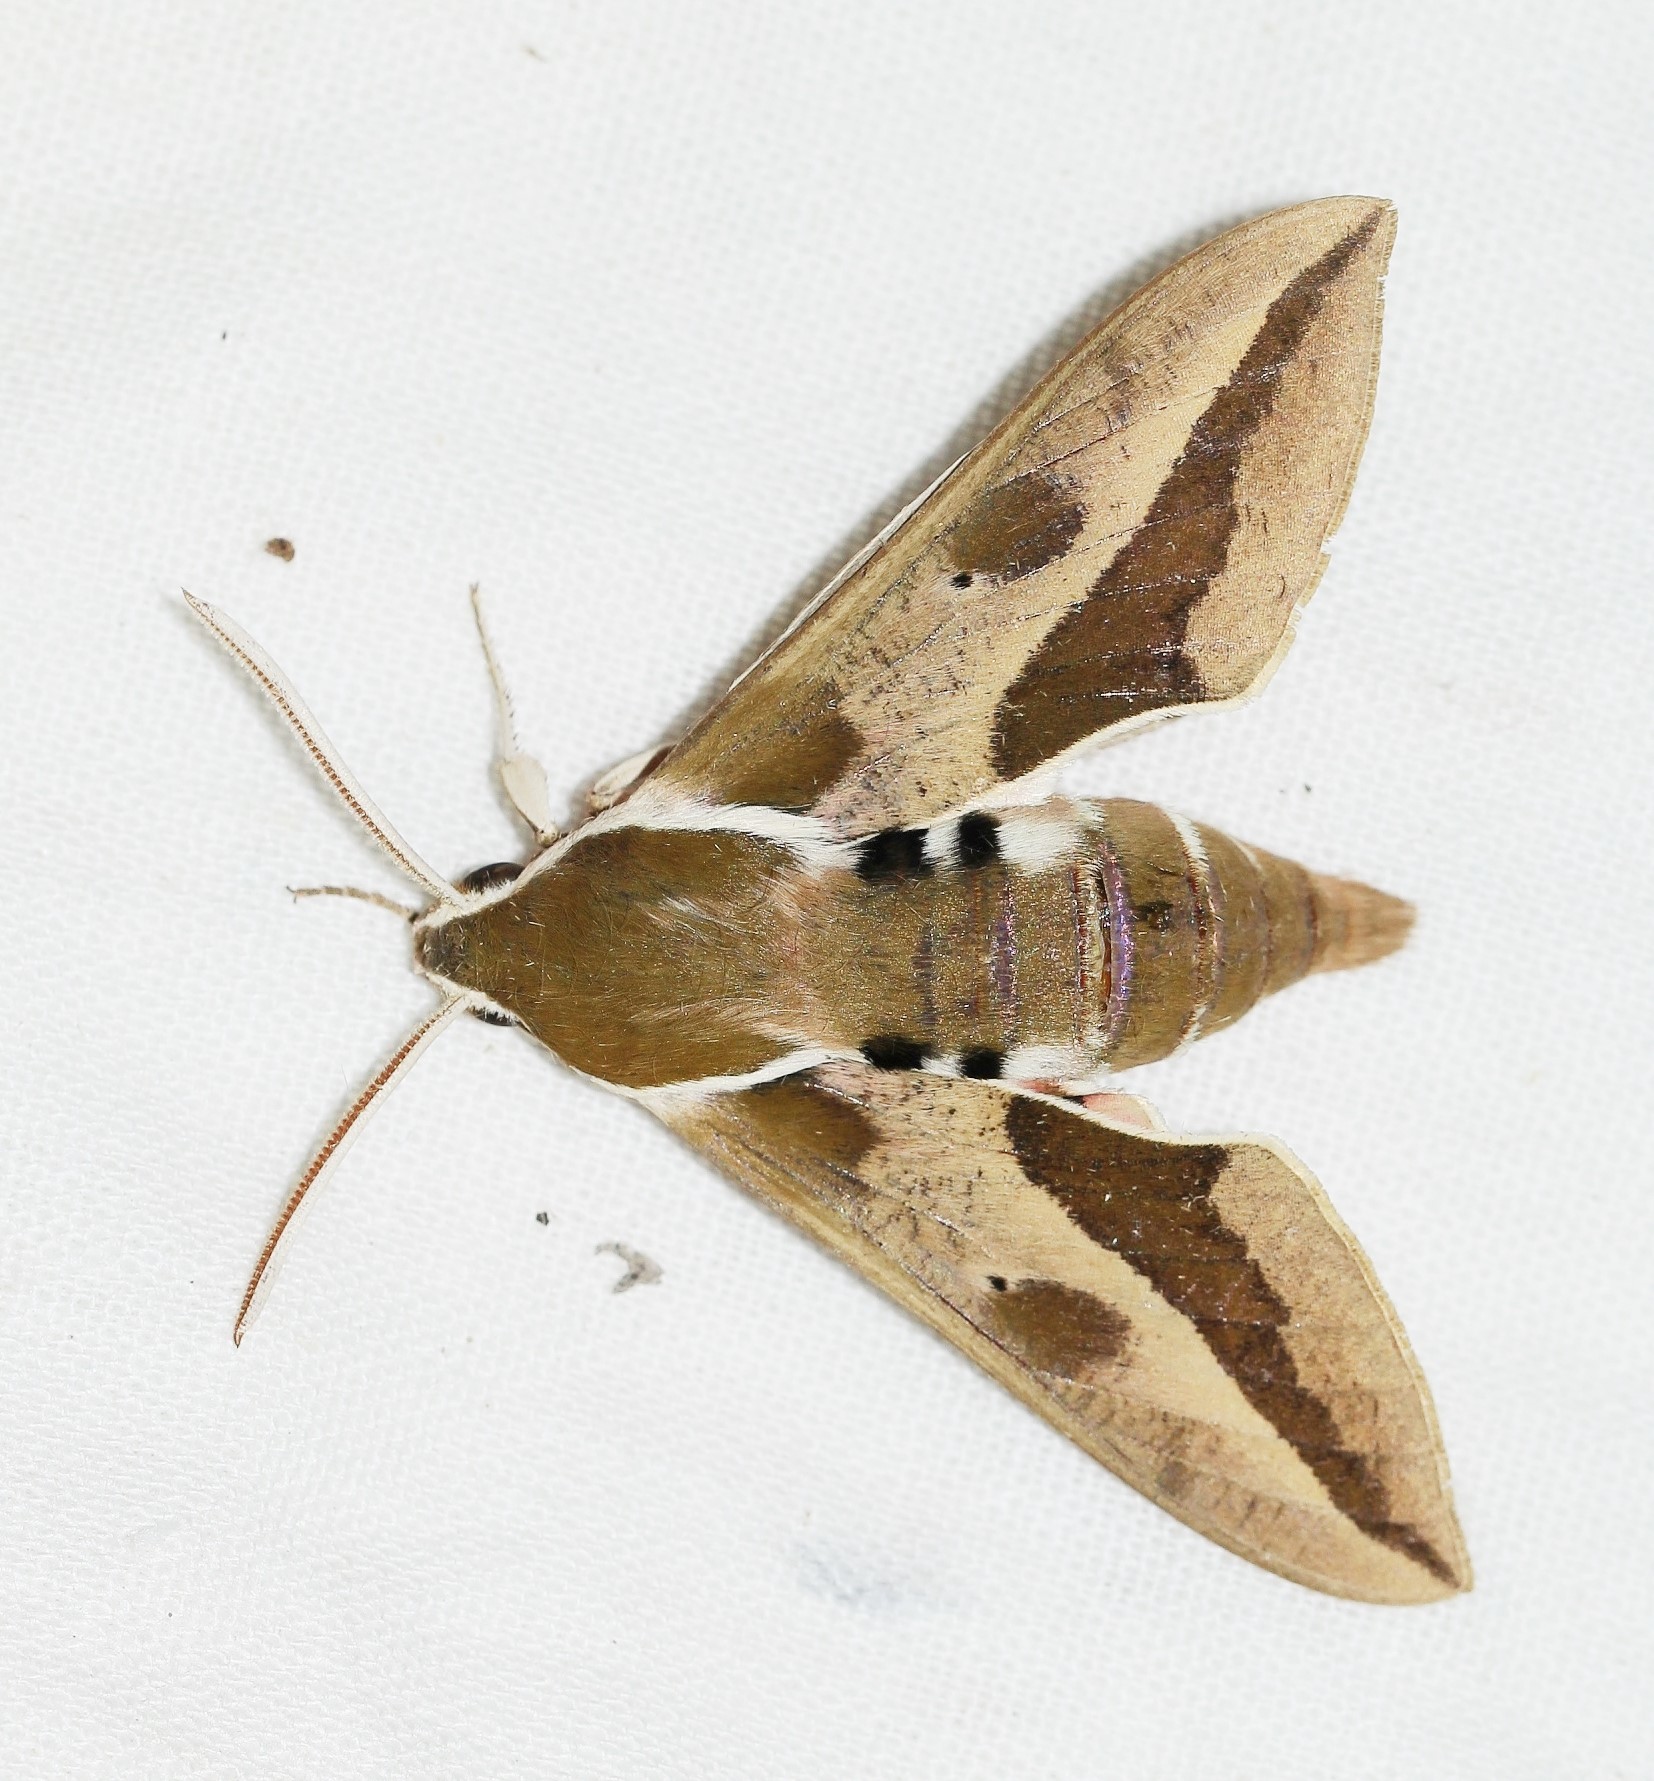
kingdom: Animalia
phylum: Arthropoda
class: Insecta
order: Lepidoptera
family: Sphingidae
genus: Hyles
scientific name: Hyles euphorbiae
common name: Spurge hawk-moth
